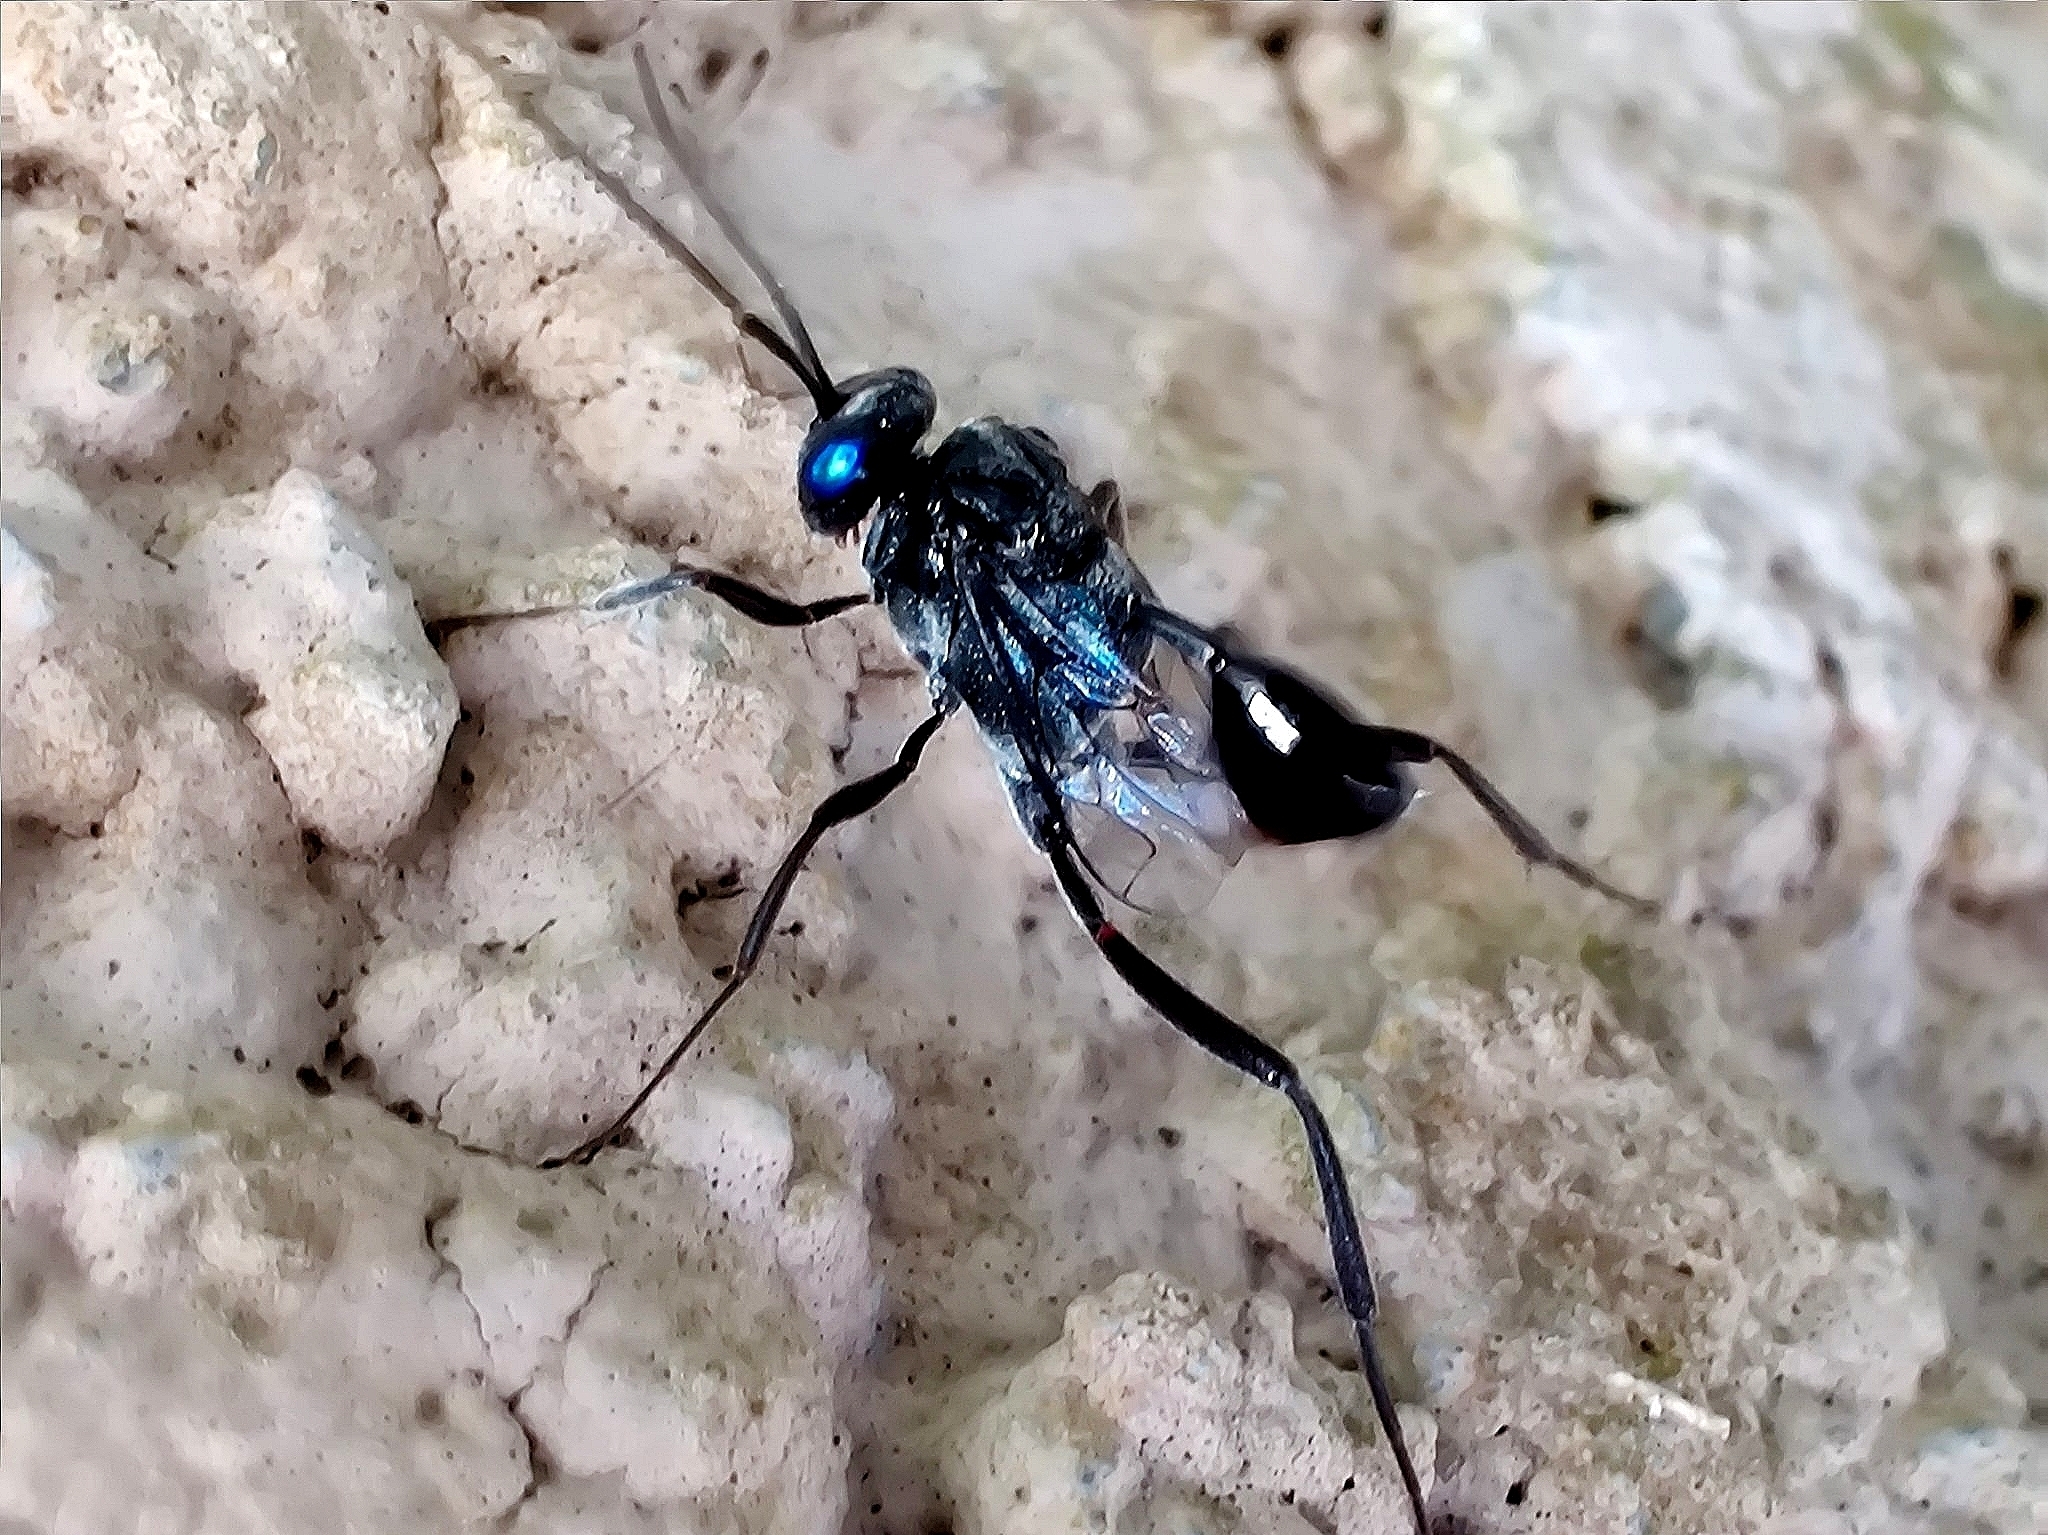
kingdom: Animalia
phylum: Arthropoda
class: Insecta
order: Hymenoptera
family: Evaniidae
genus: Evania
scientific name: Evania appendigaster
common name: Ensign wasp
